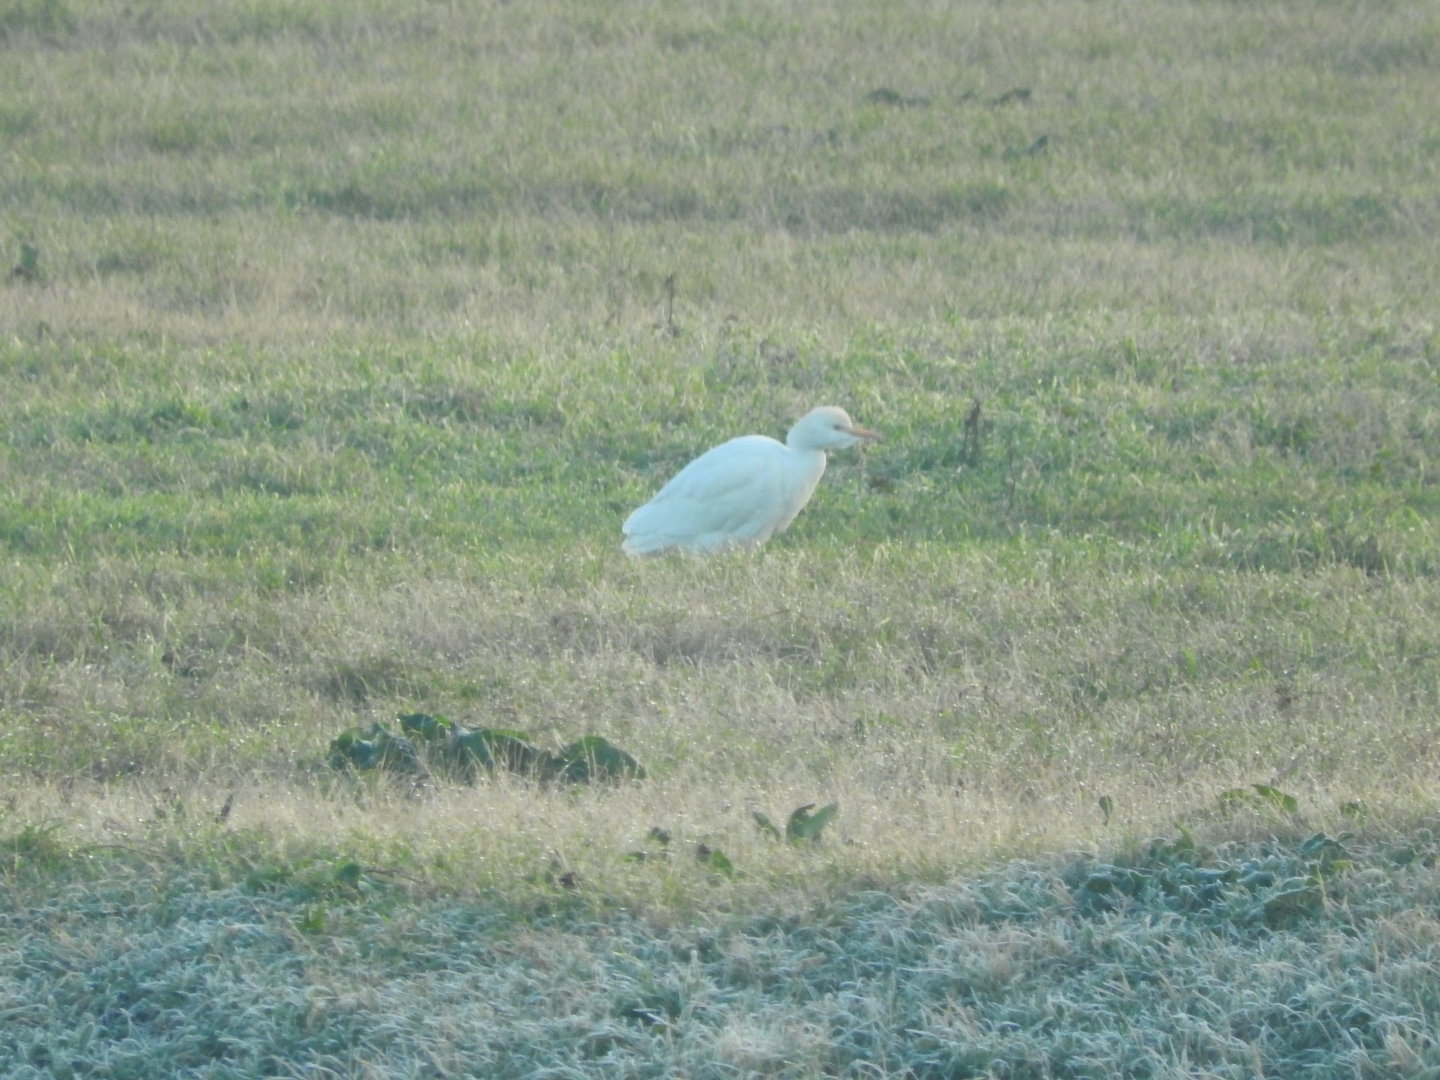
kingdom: Animalia
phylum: Chordata
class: Aves
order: Pelecaniformes
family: Ardeidae
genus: Bubulcus
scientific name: Bubulcus ibis
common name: Cattle egret
